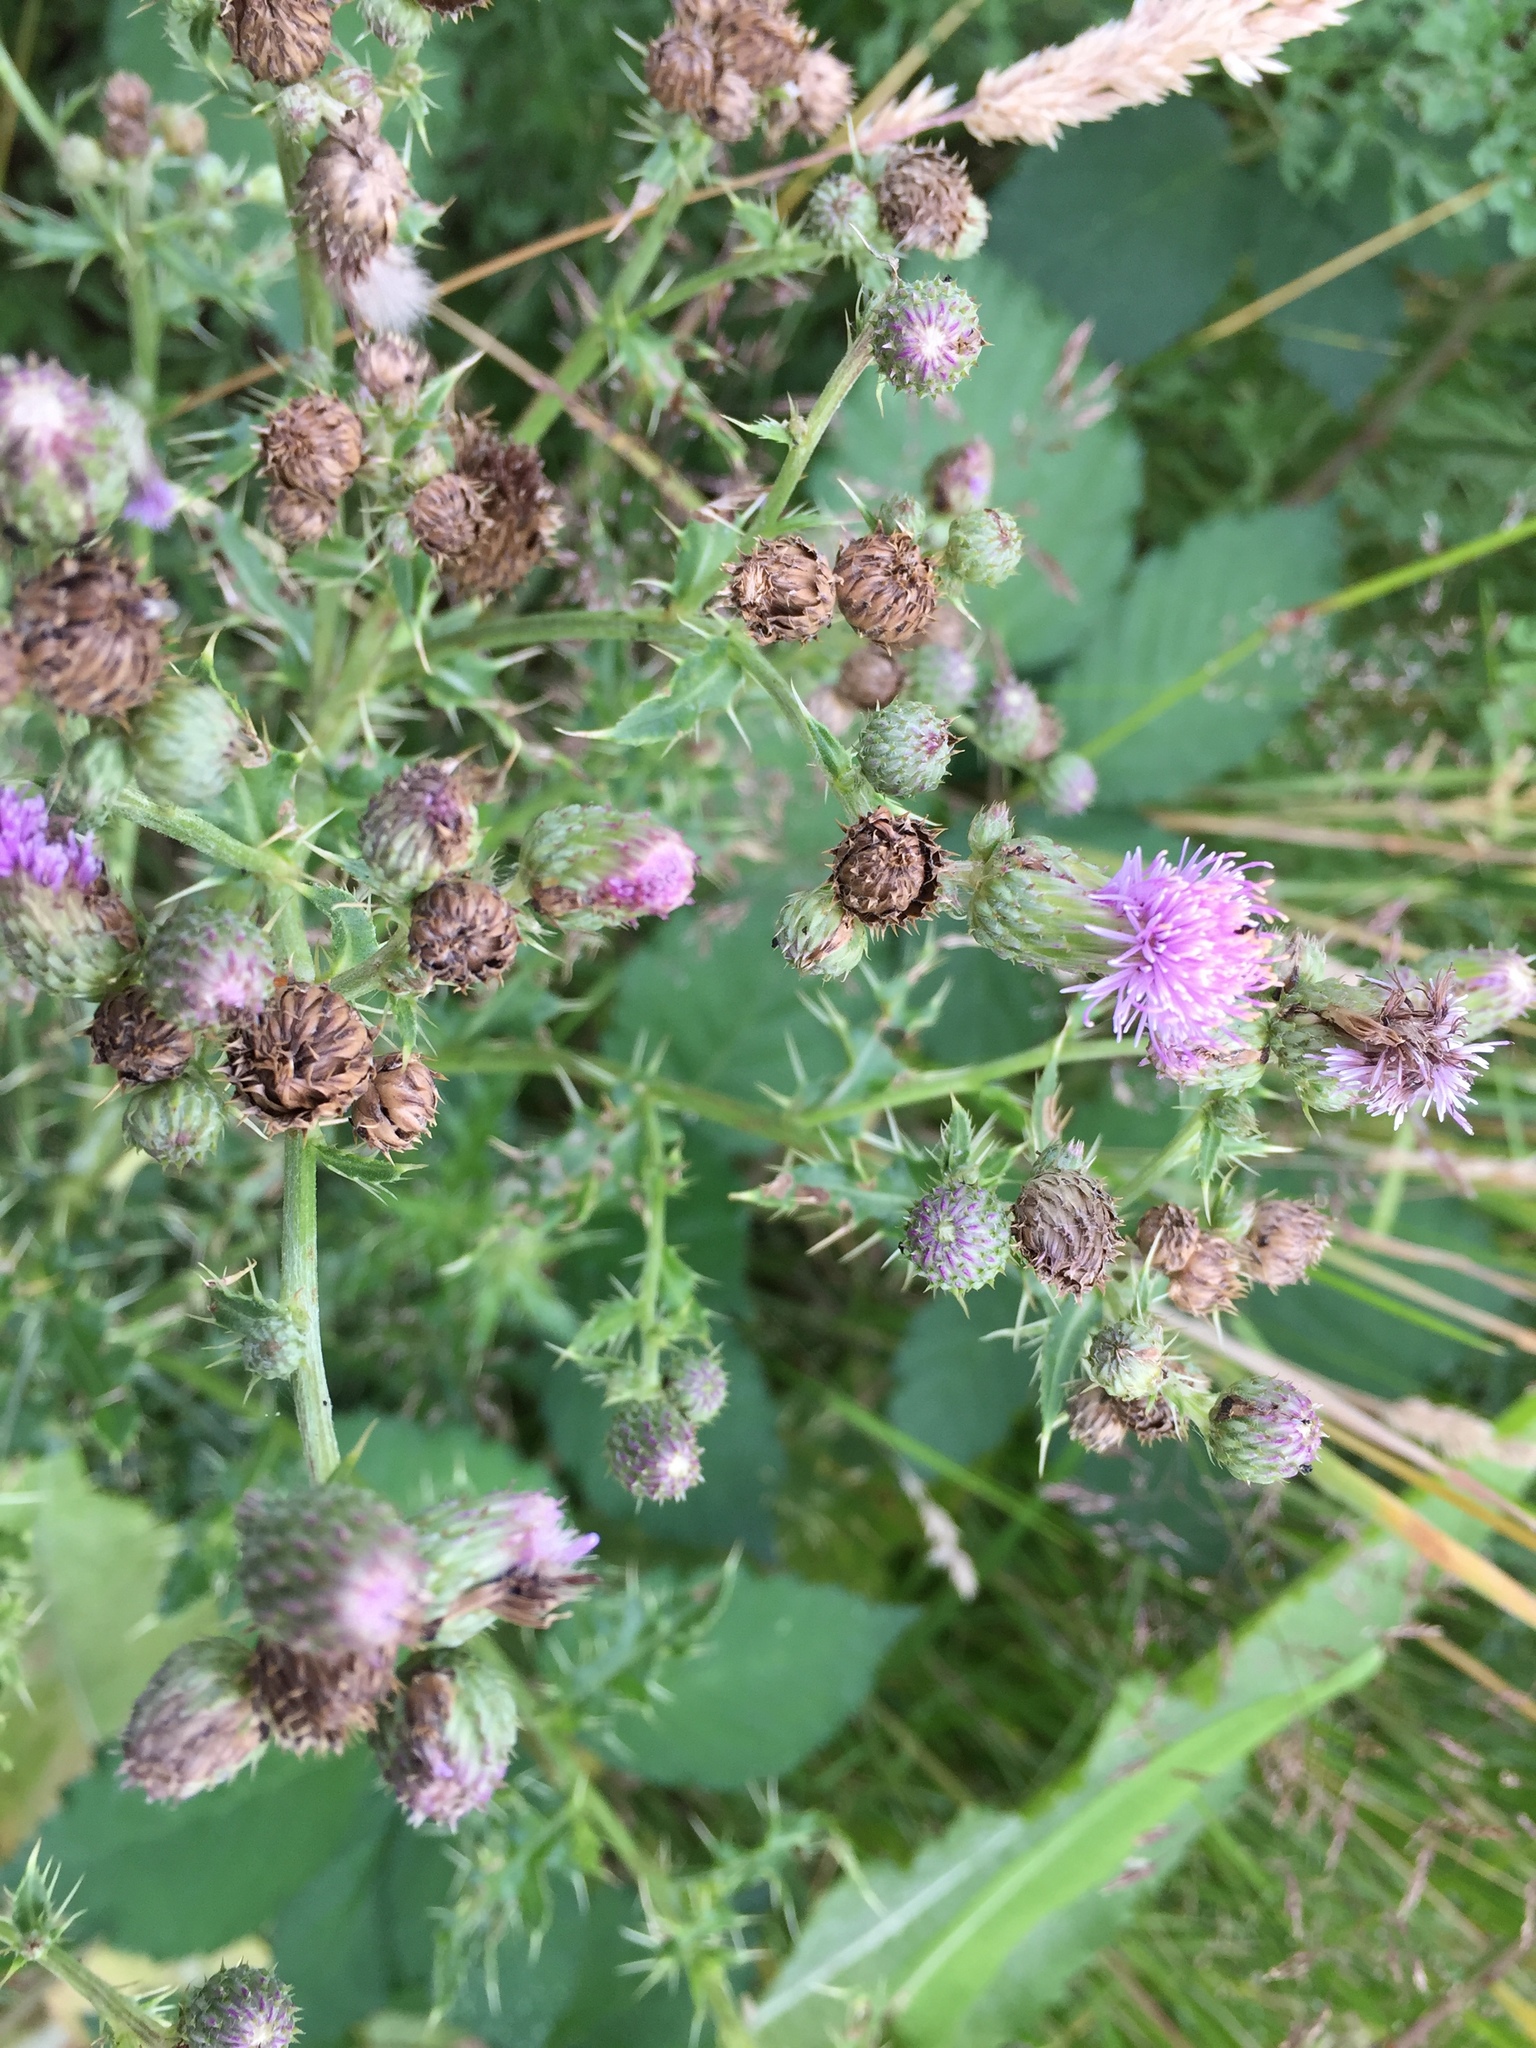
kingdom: Plantae
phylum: Tracheophyta
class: Magnoliopsida
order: Asterales
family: Asteraceae
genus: Cirsium
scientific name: Cirsium arvense
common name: Creeping thistle
